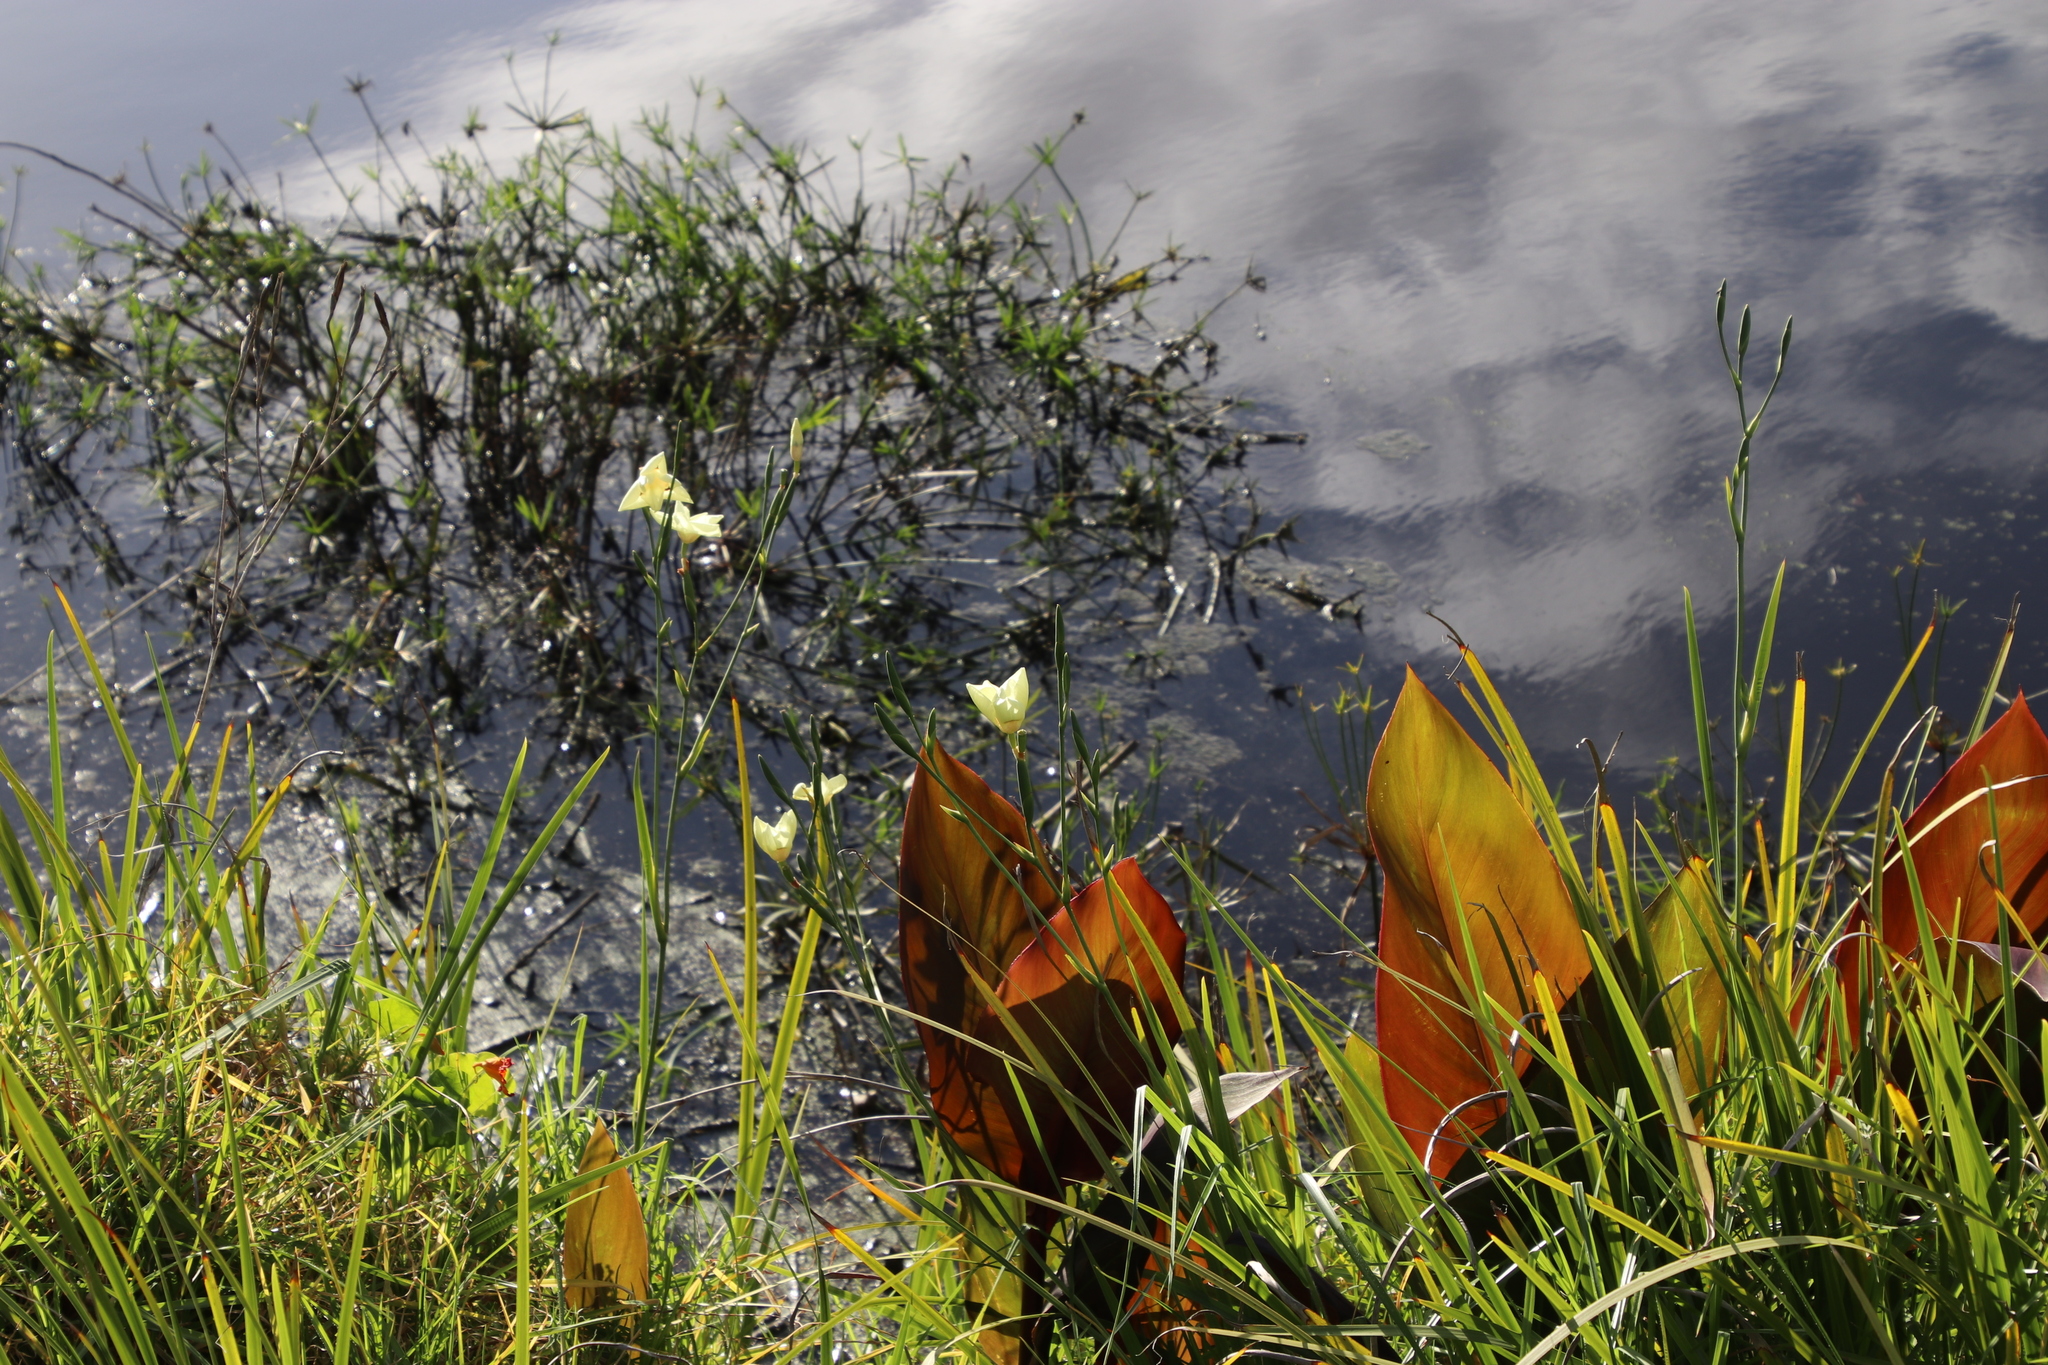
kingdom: Plantae
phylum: Tracheophyta
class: Liliopsida
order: Asparagales
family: Iridaceae
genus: Dietes
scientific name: Dietes bicolor
